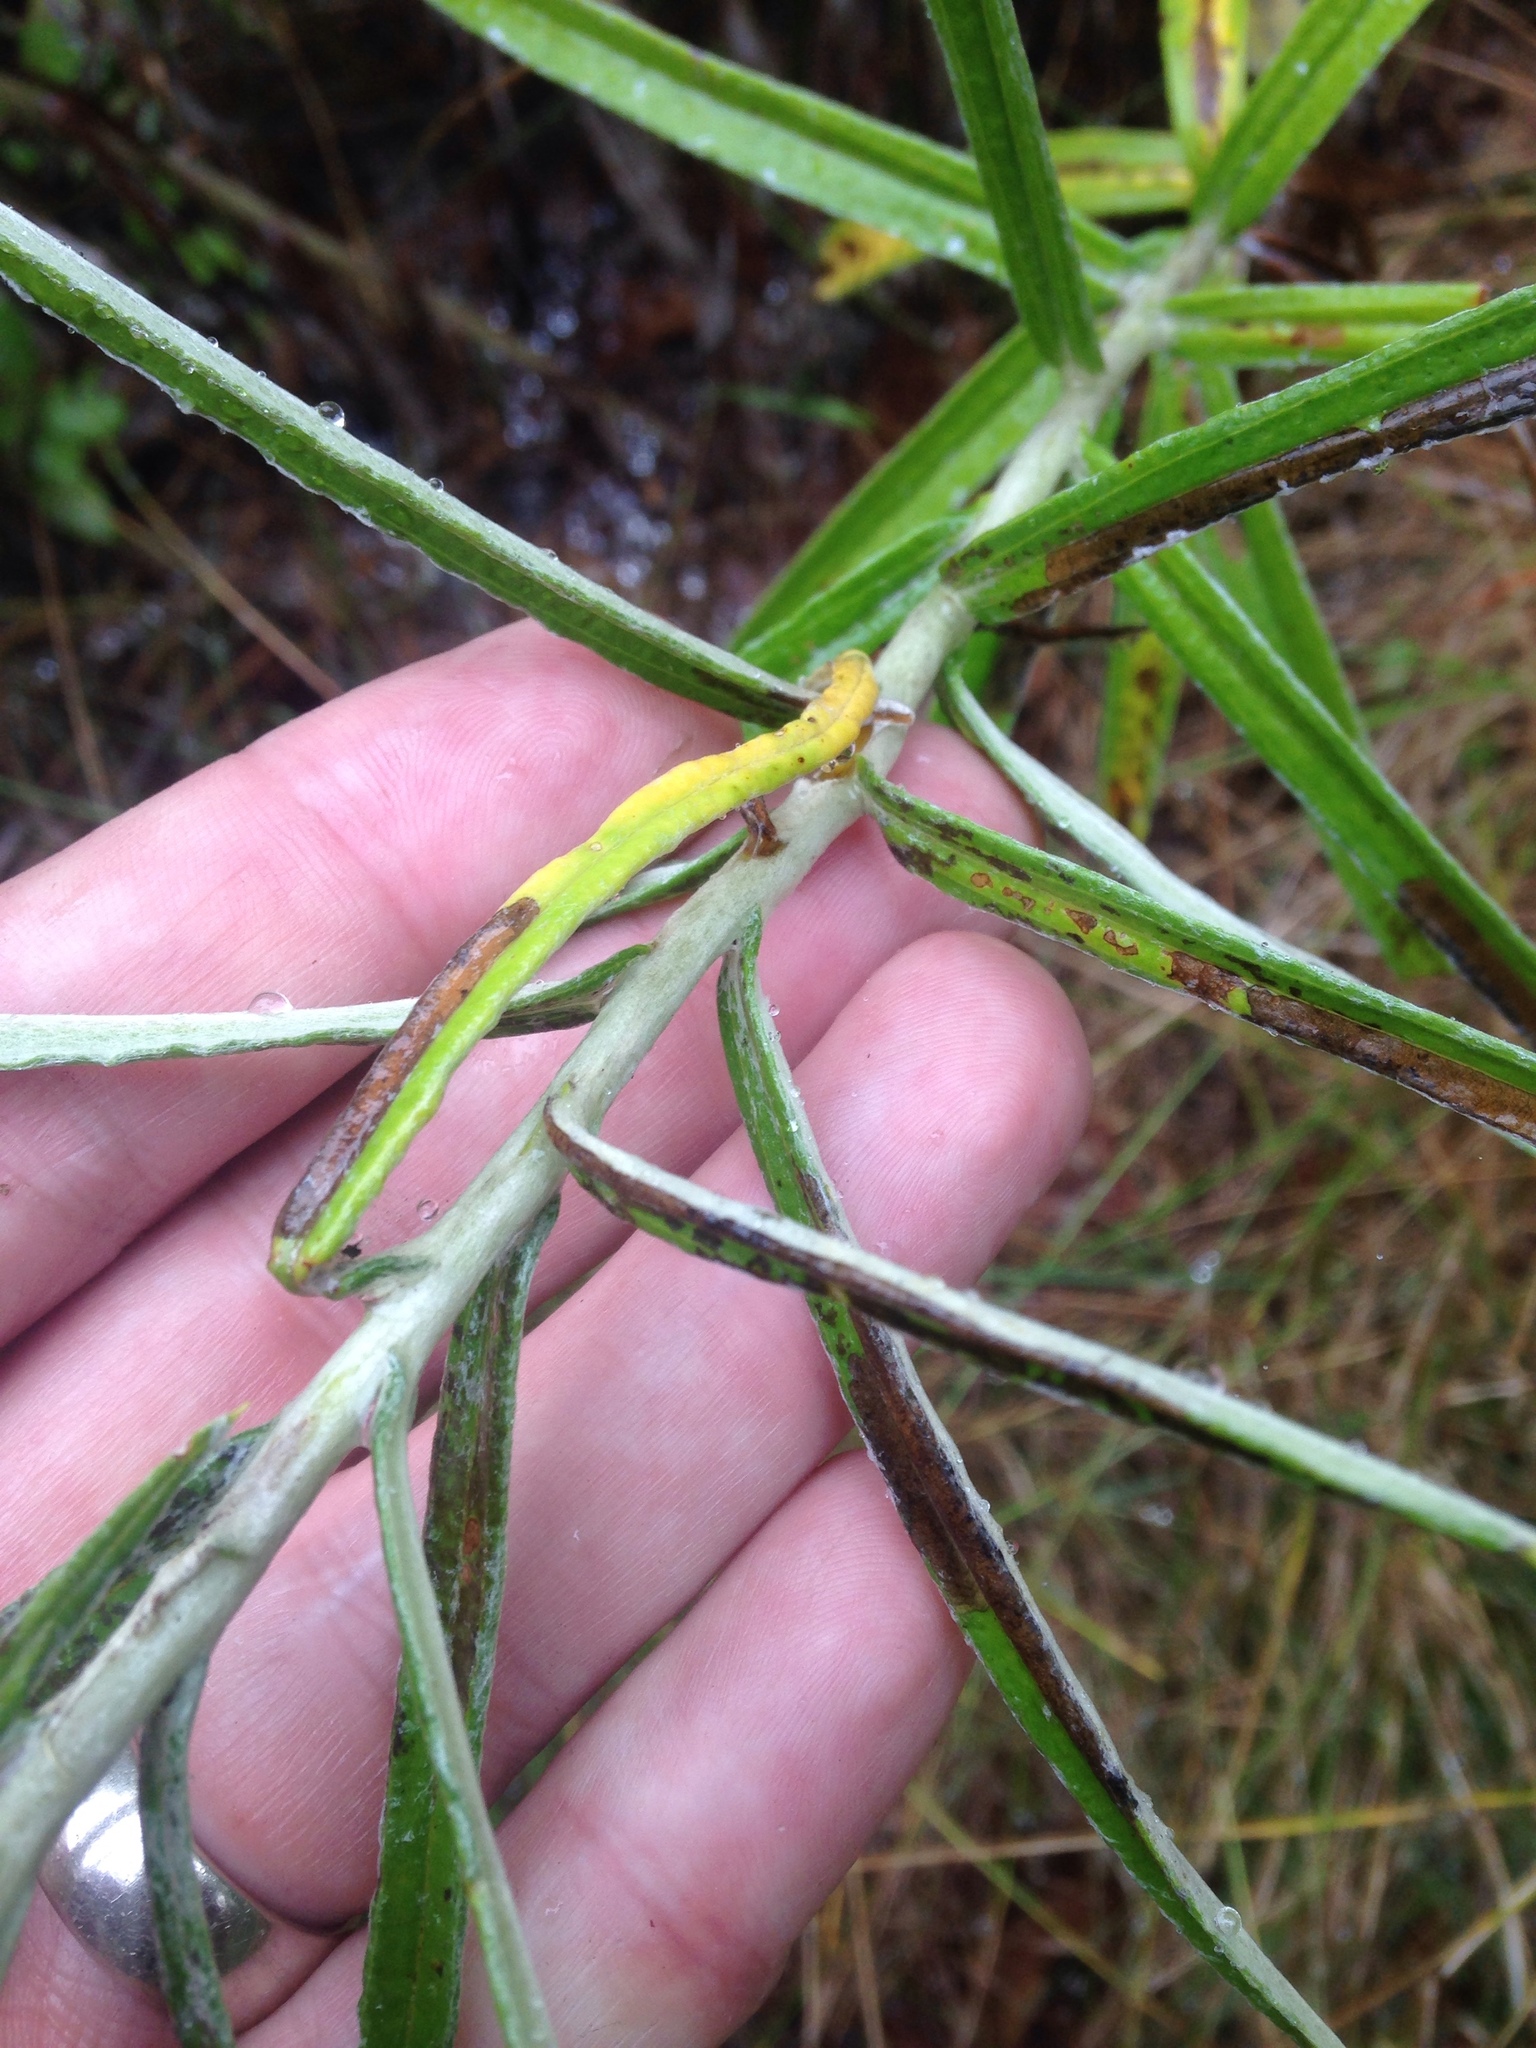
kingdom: Plantae
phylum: Tracheophyta
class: Magnoliopsida
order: Asterales
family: Asteraceae
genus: Anaphalis
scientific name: Anaphalis margaritacea
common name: Pearly everlasting
